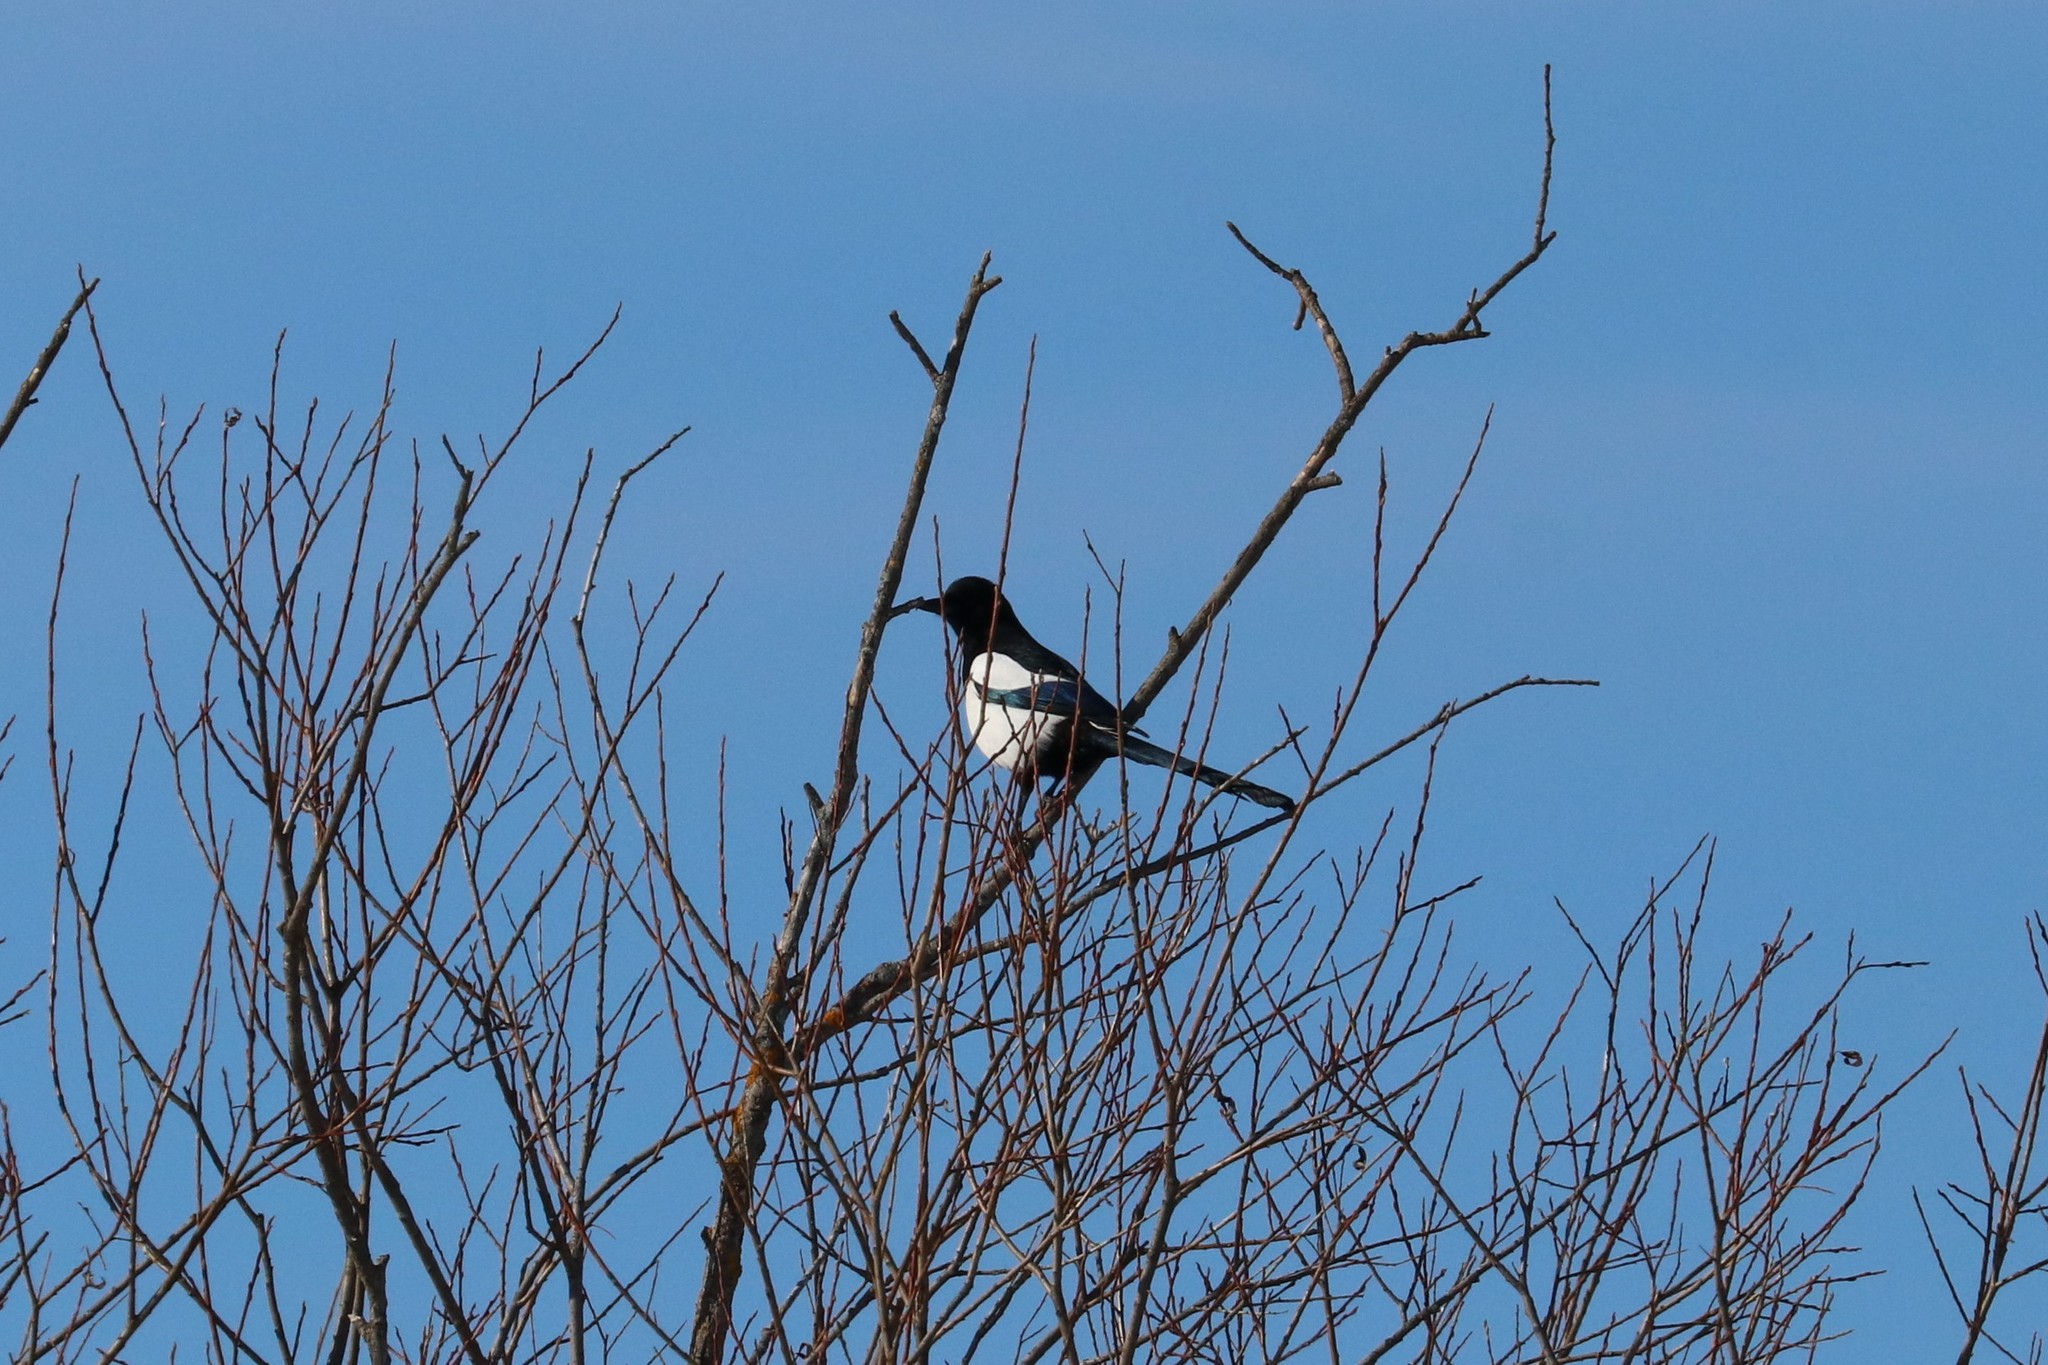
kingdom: Animalia
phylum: Chordata
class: Aves
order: Passeriformes
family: Corvidae
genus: Pica
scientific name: Pica pica
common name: Eurasian magpie
